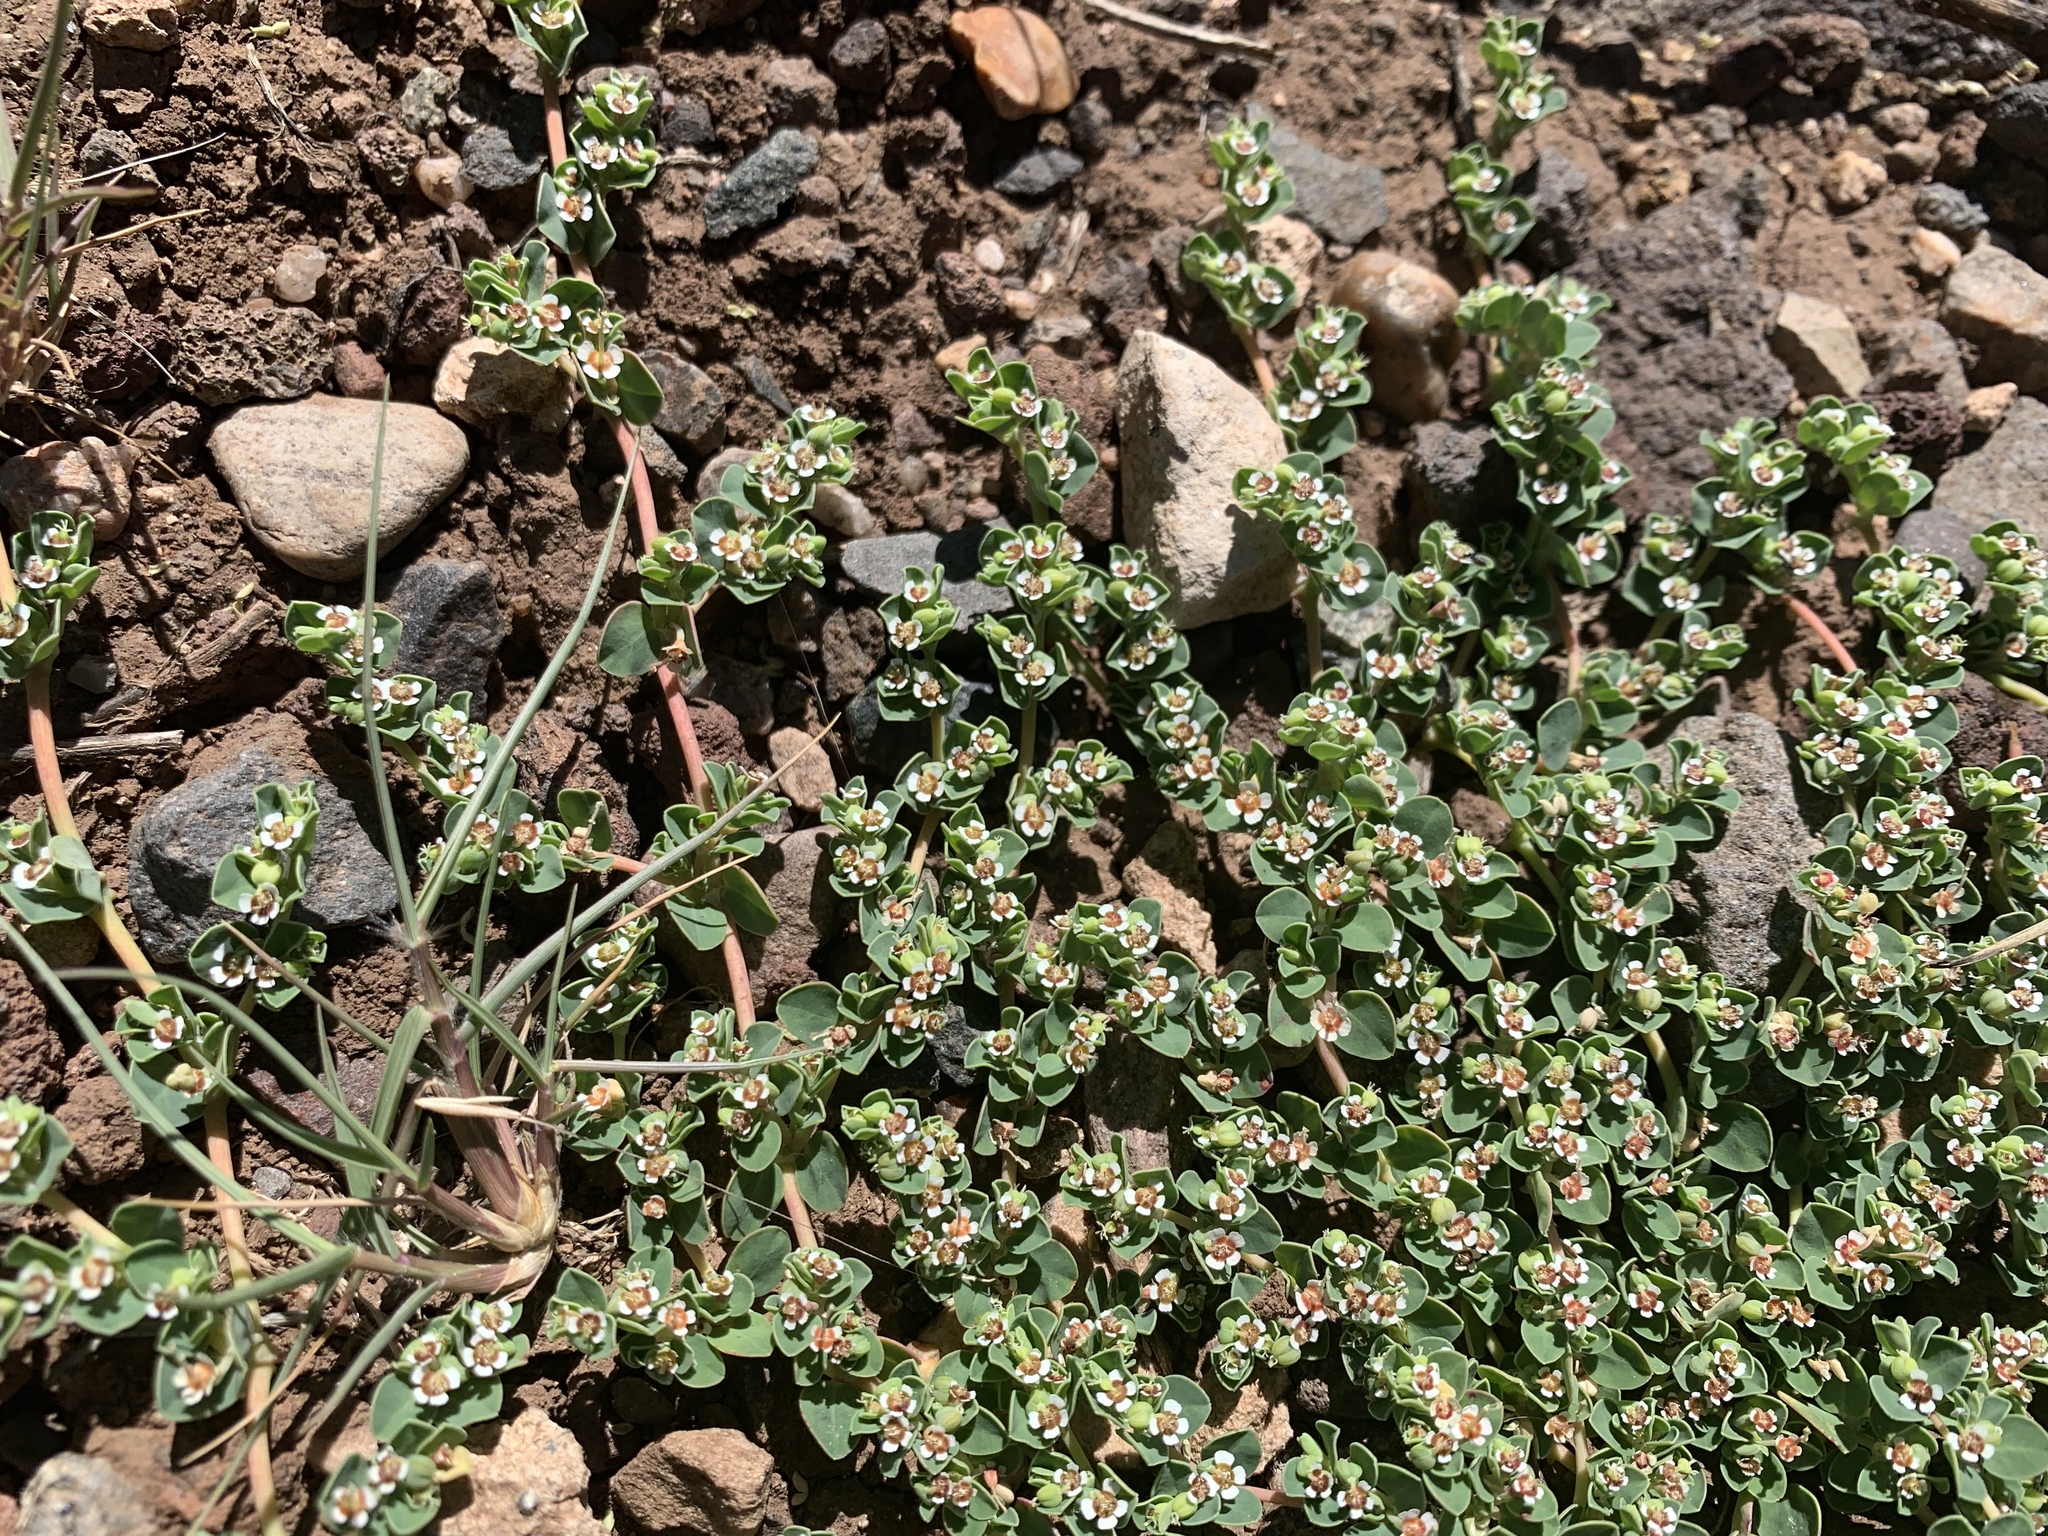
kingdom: Plantae
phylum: Tracheophyta
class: Magnoliopsida
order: Malpighiales
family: Euphorbiaceae
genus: Euphorbia
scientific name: Euphorbia albomarginata
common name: Whitemargin sandmat
